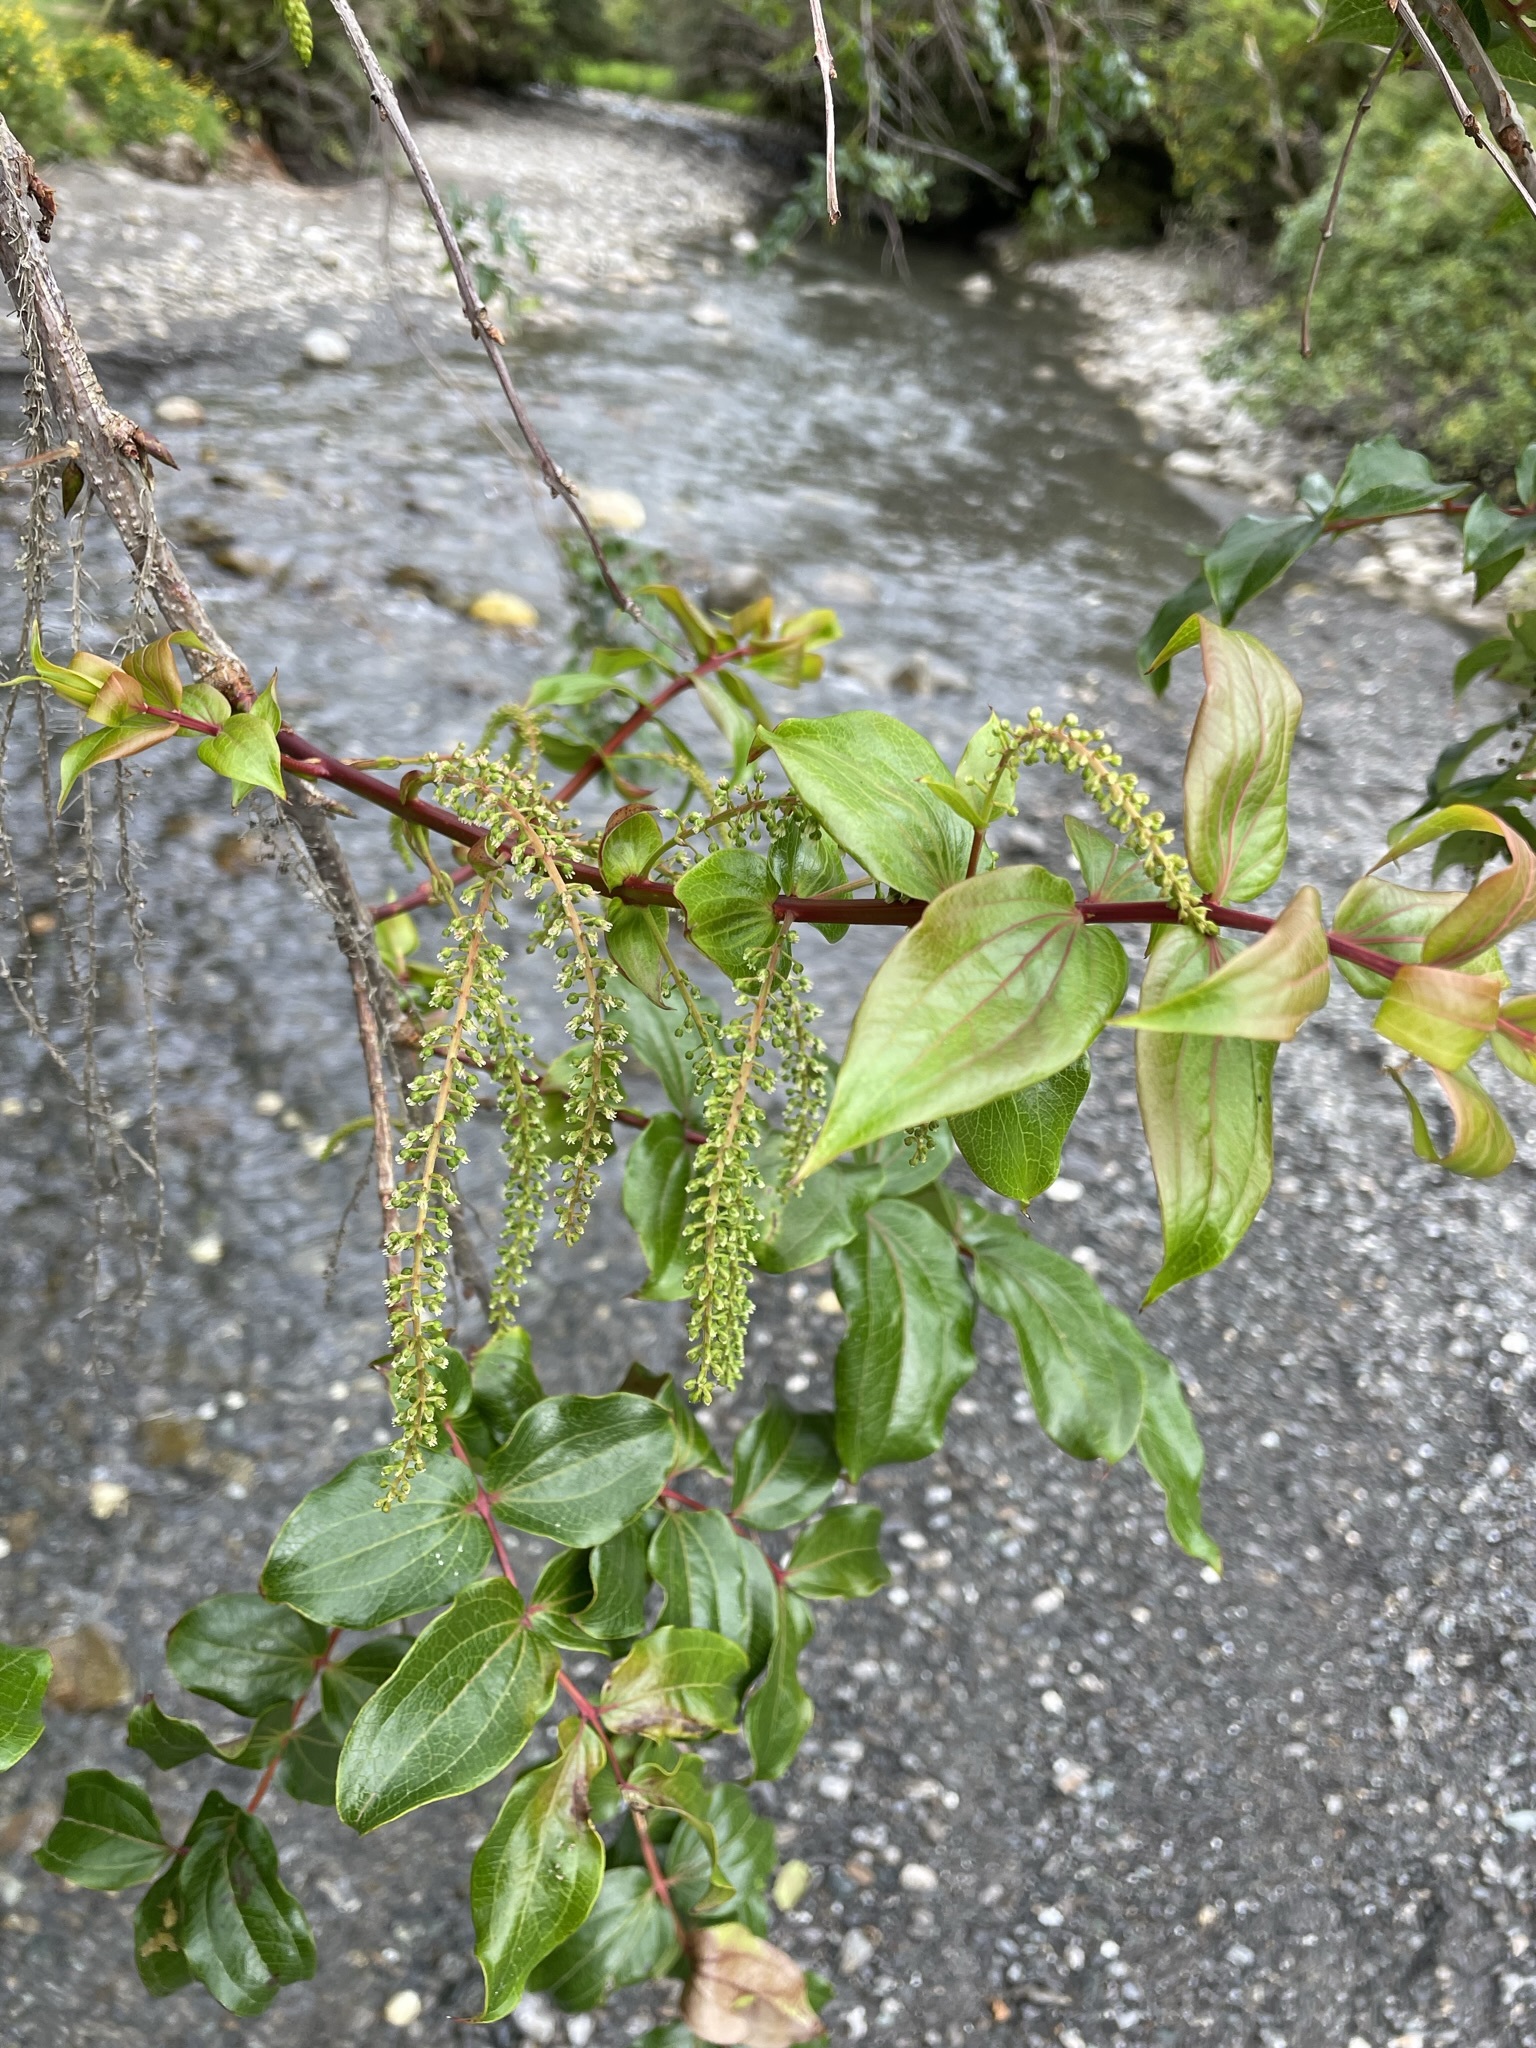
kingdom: Plantae
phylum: Tracheophyta
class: Magnoliopsida
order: Cucurbitales
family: Coriariaceae
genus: Coriaria
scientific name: Coriaria arborea
